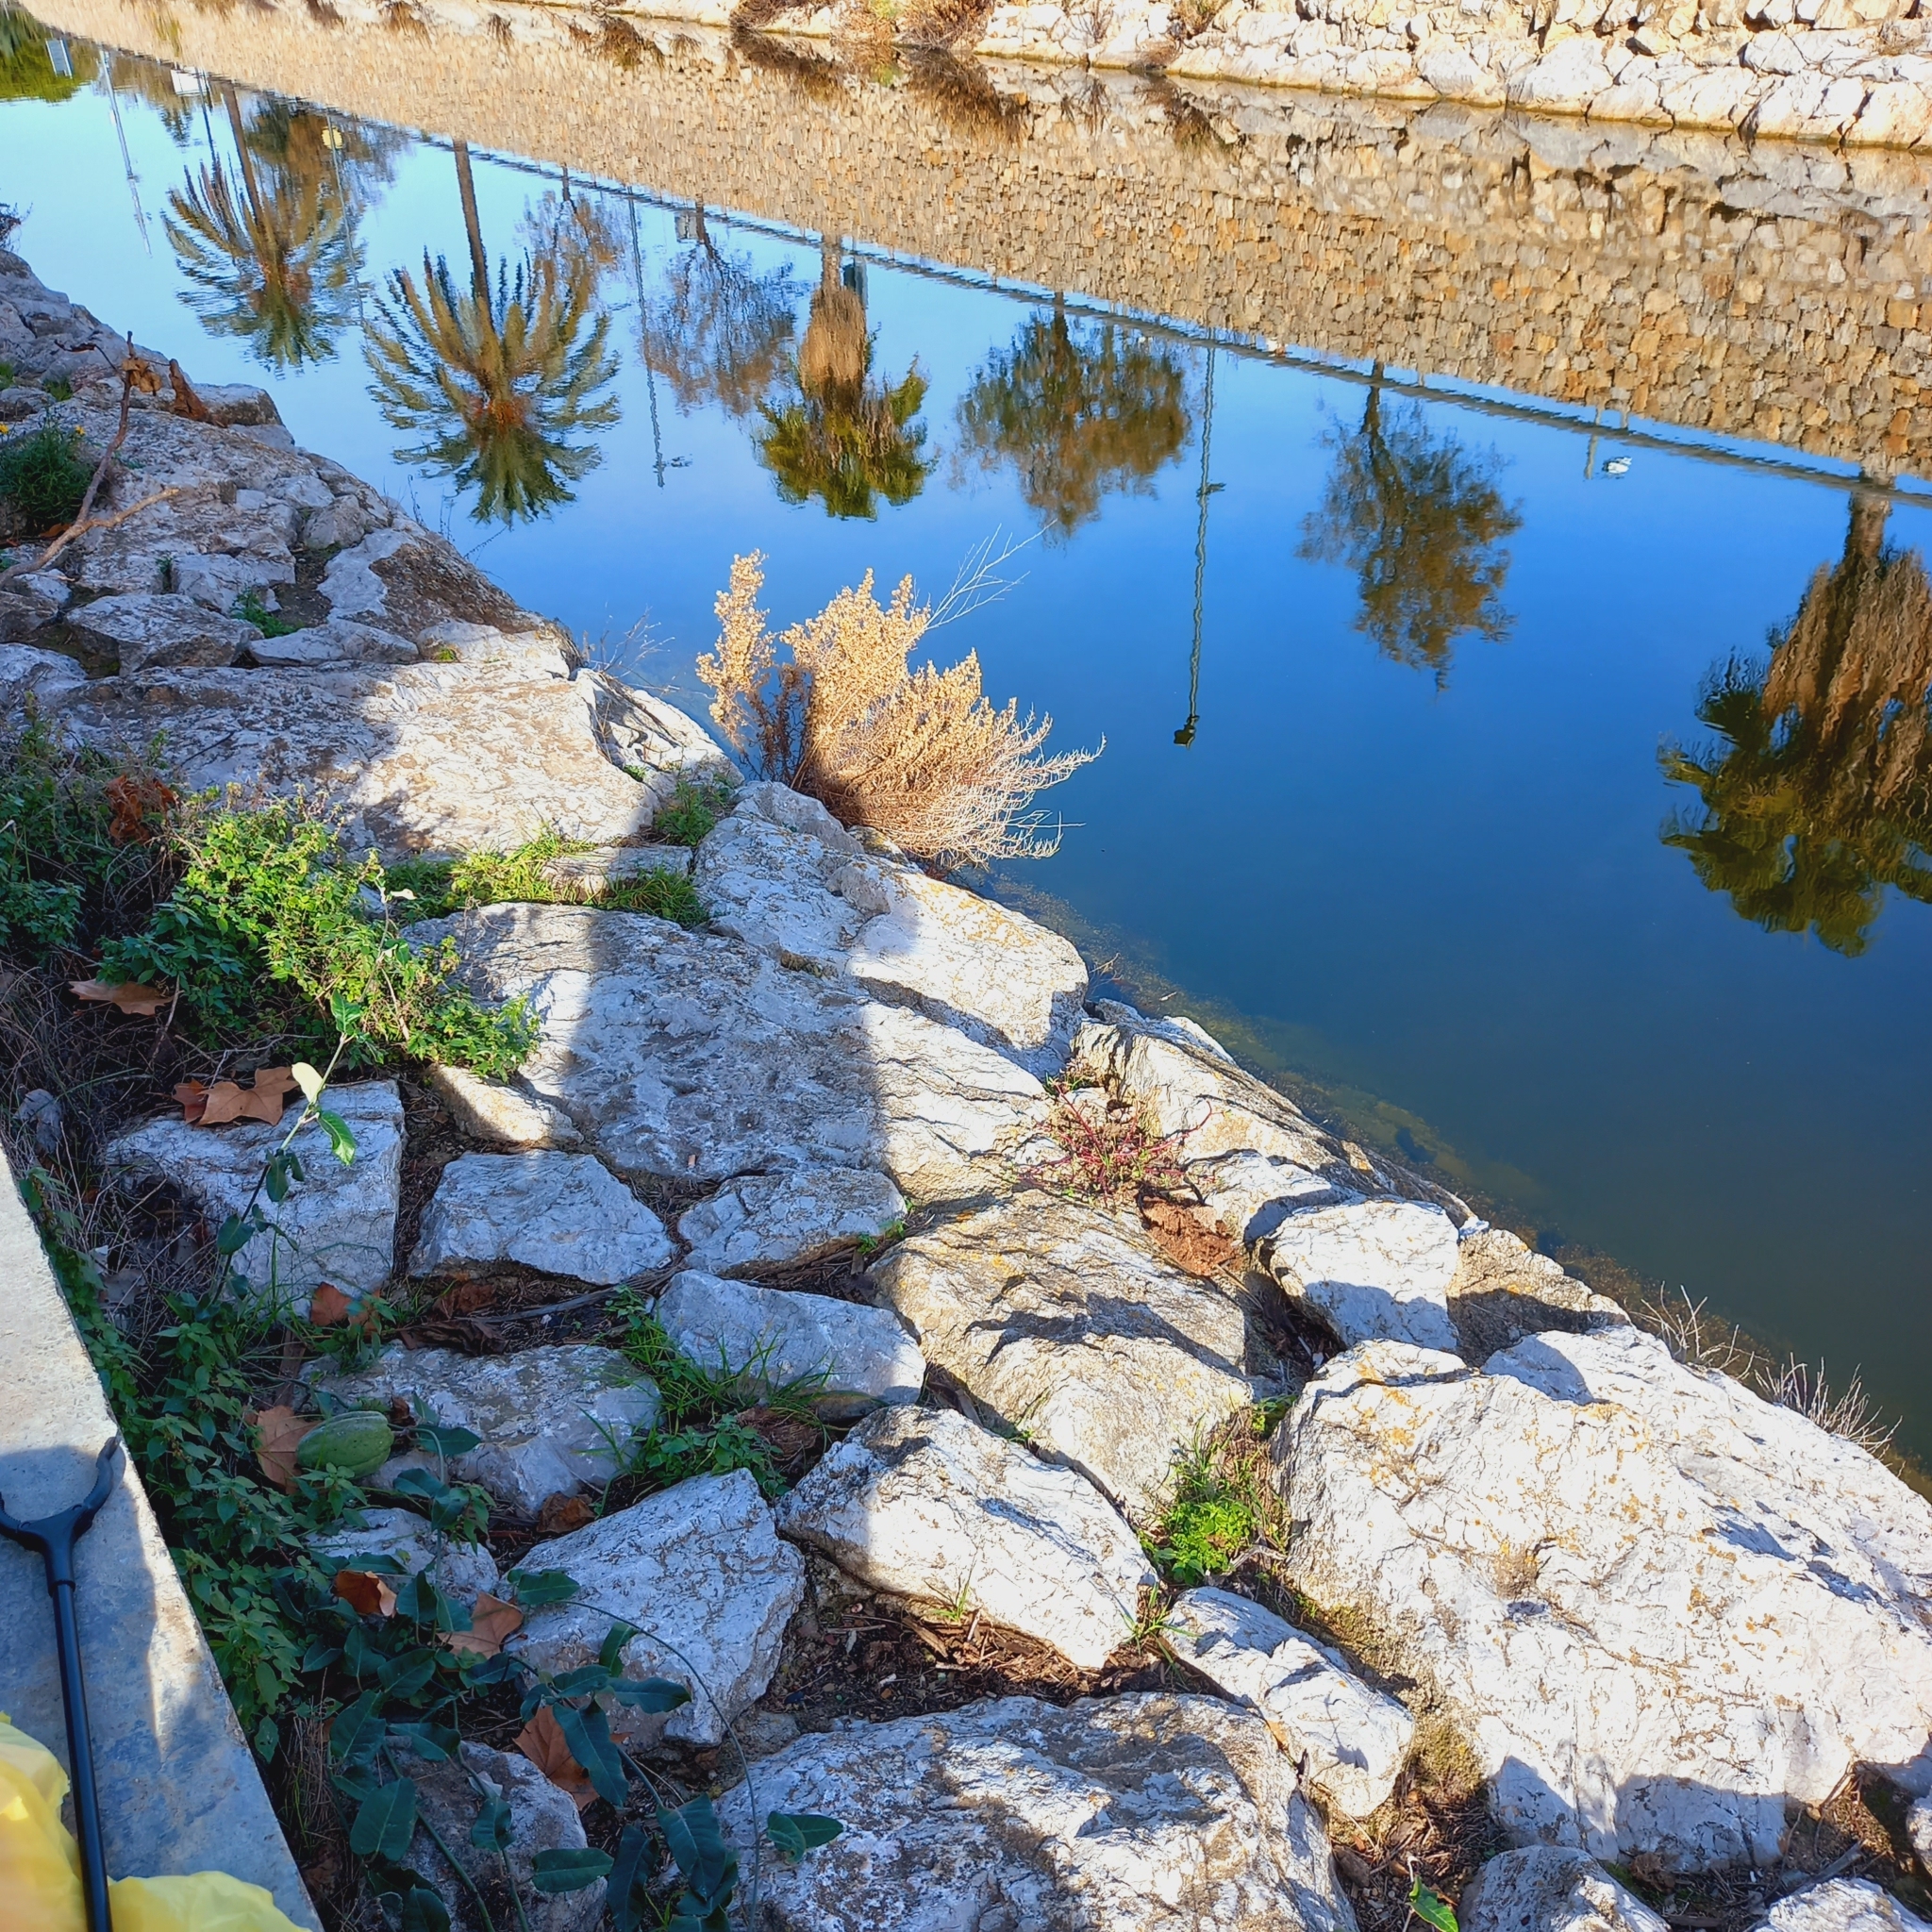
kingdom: Plantae
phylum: Tracheophyta
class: Magnoliopsida
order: Gentianales
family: Apocynaceae
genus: Araujia
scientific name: Araujia sericifera
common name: White bladderflower
